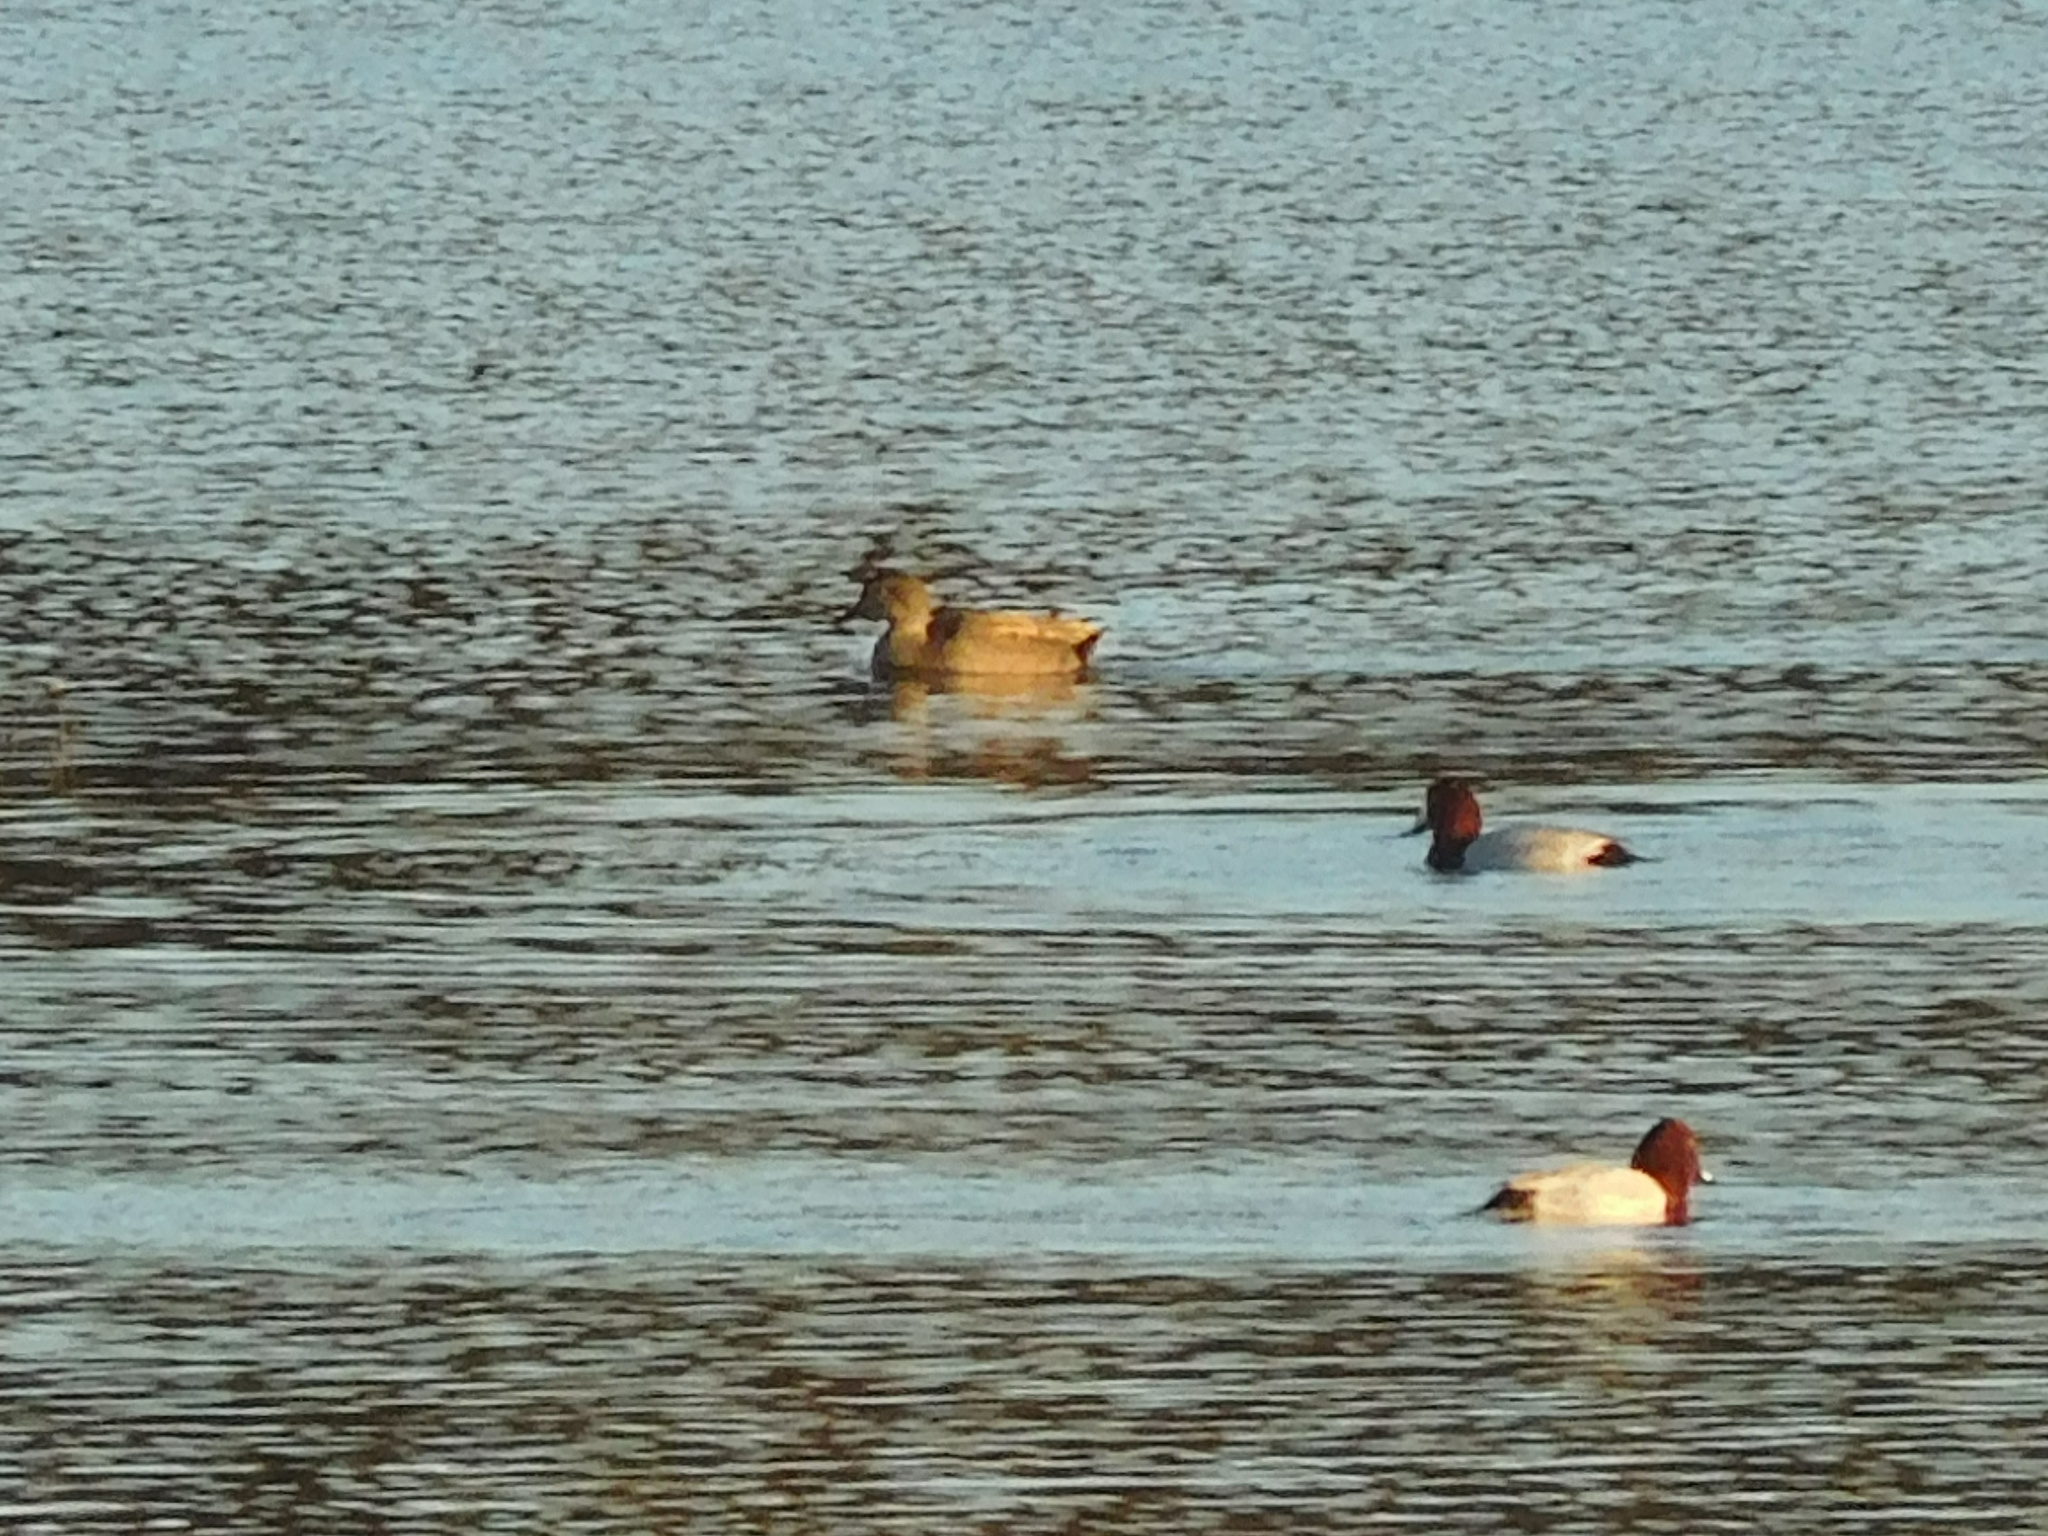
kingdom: Animalia
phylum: Chordata
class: Aves
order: Anseriformes
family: Anatidae
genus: Aythya
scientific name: Aythya ferina
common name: Common pochard
